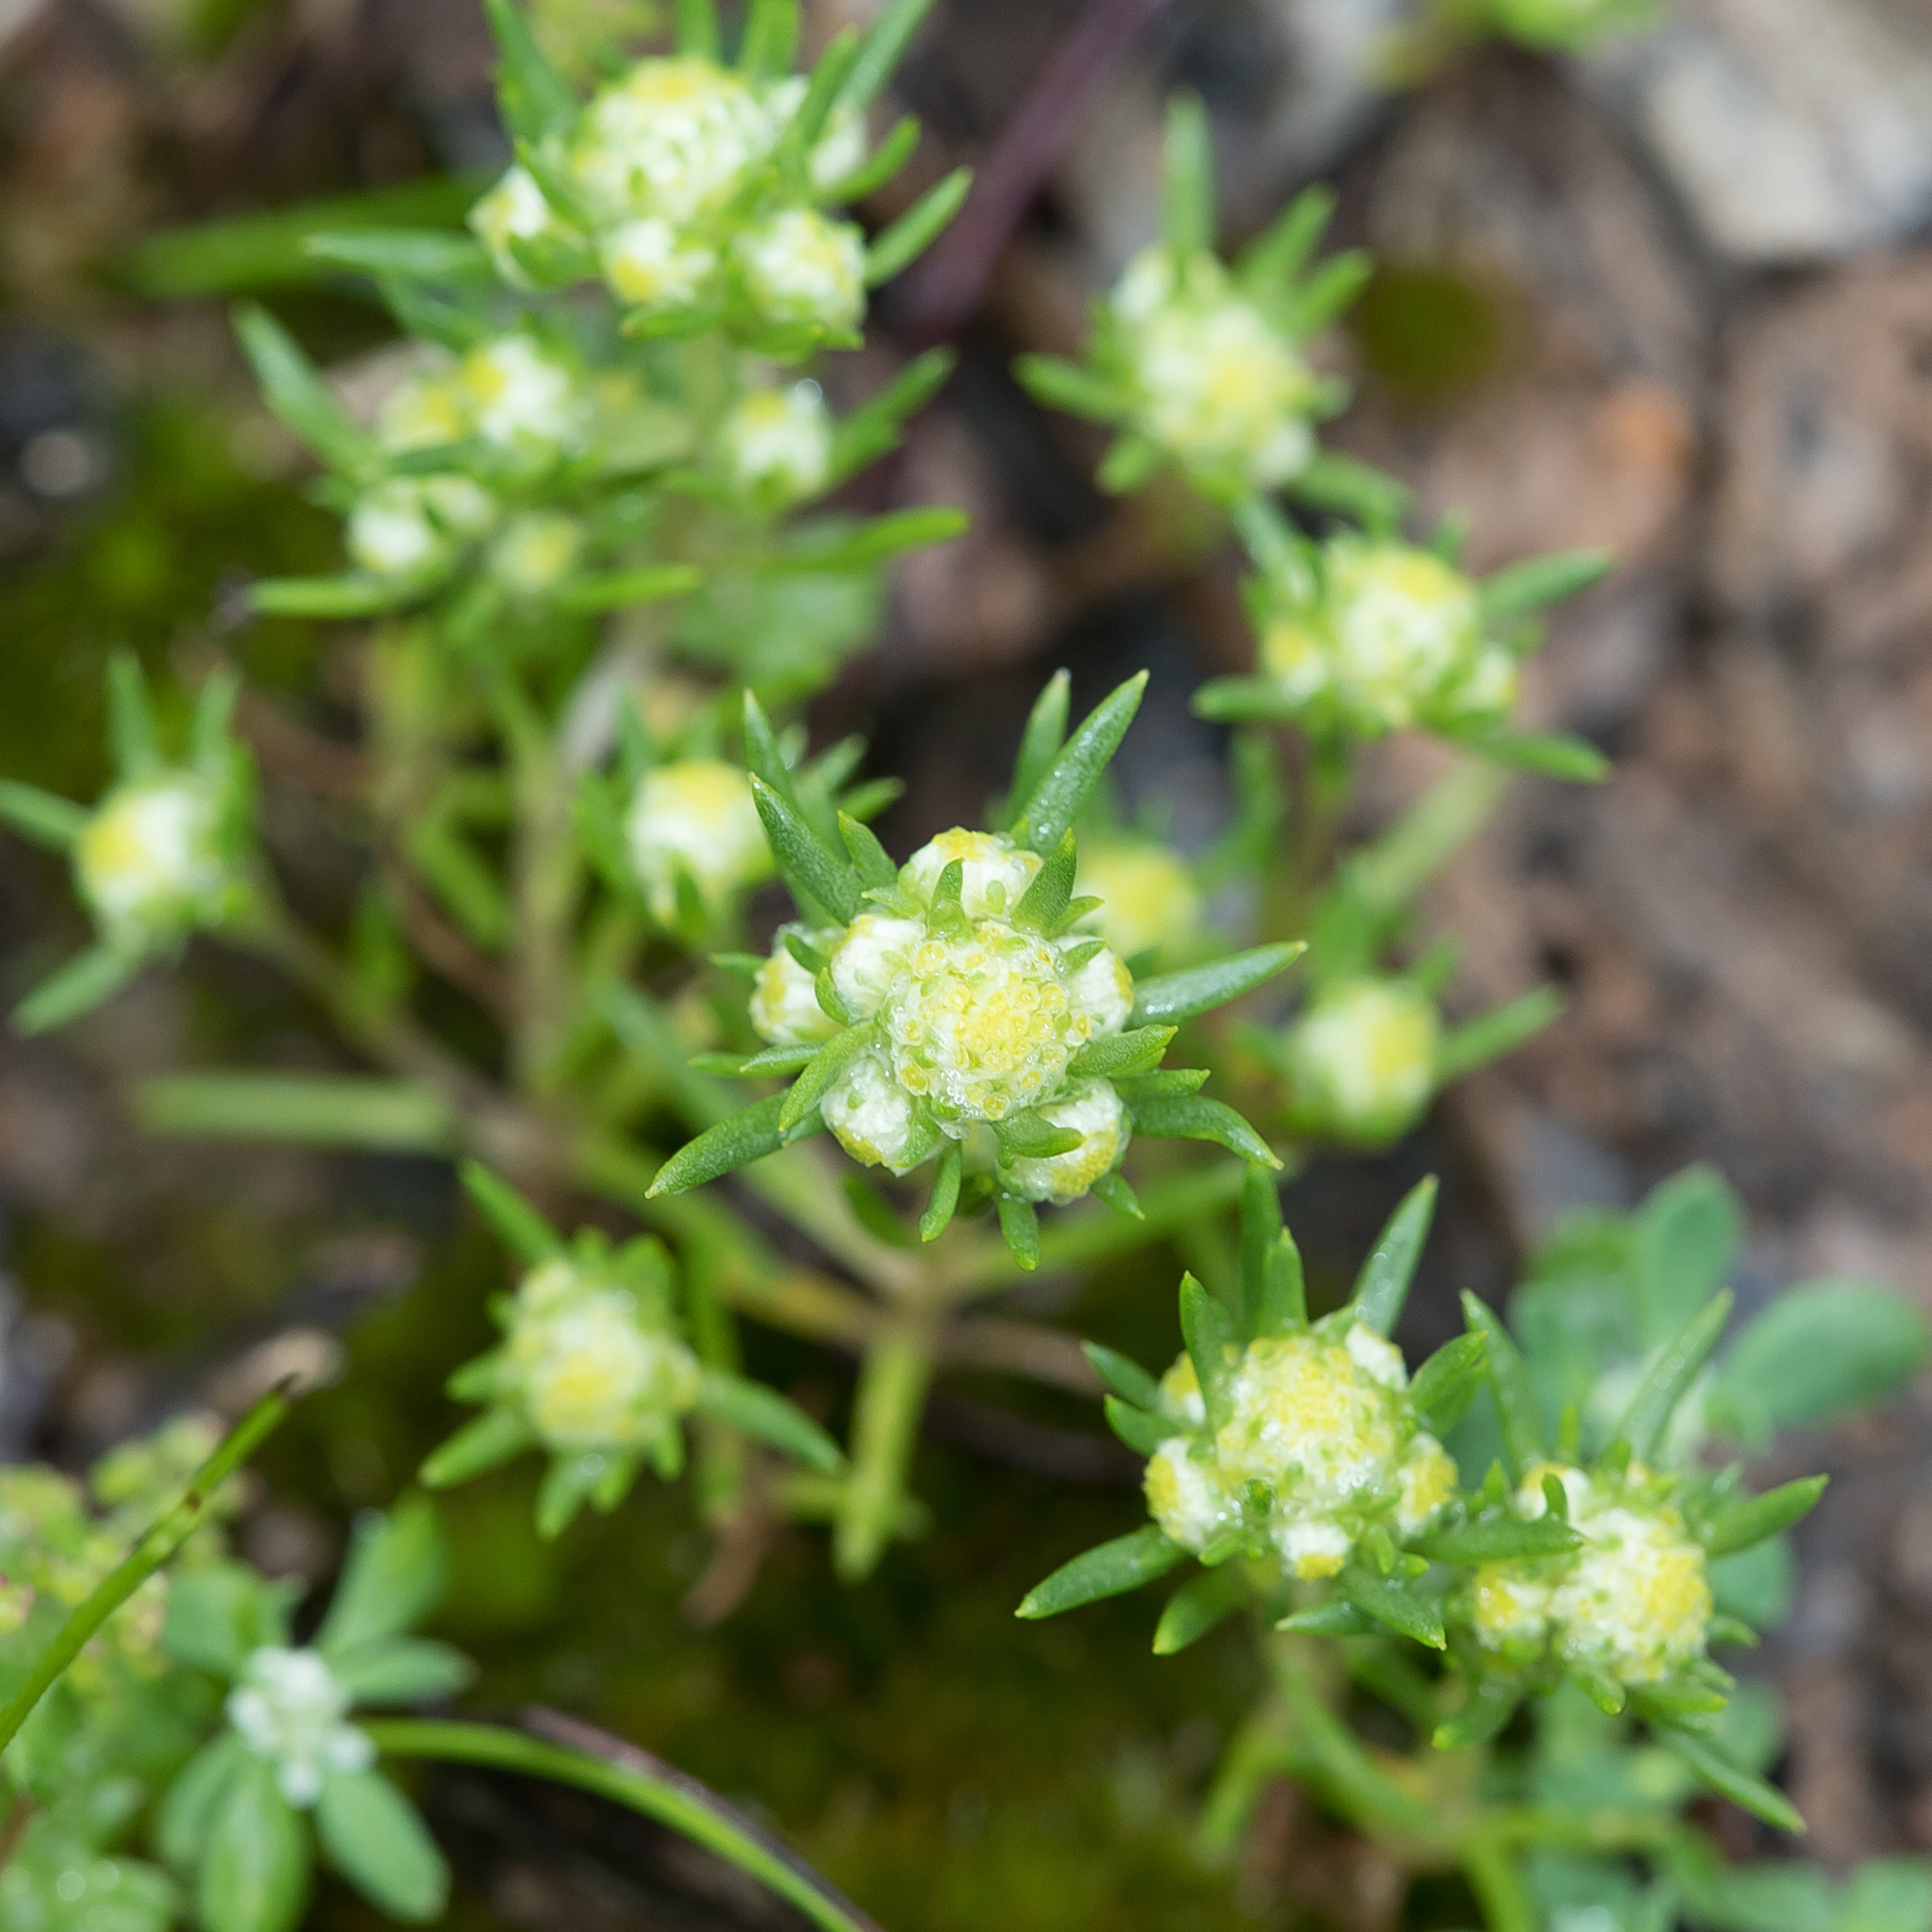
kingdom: Plantae
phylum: Tracheophyta
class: Magnoliopsida
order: Asterales
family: Asteraceae
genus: Siloxerus
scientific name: Siloxerus multiflorus
